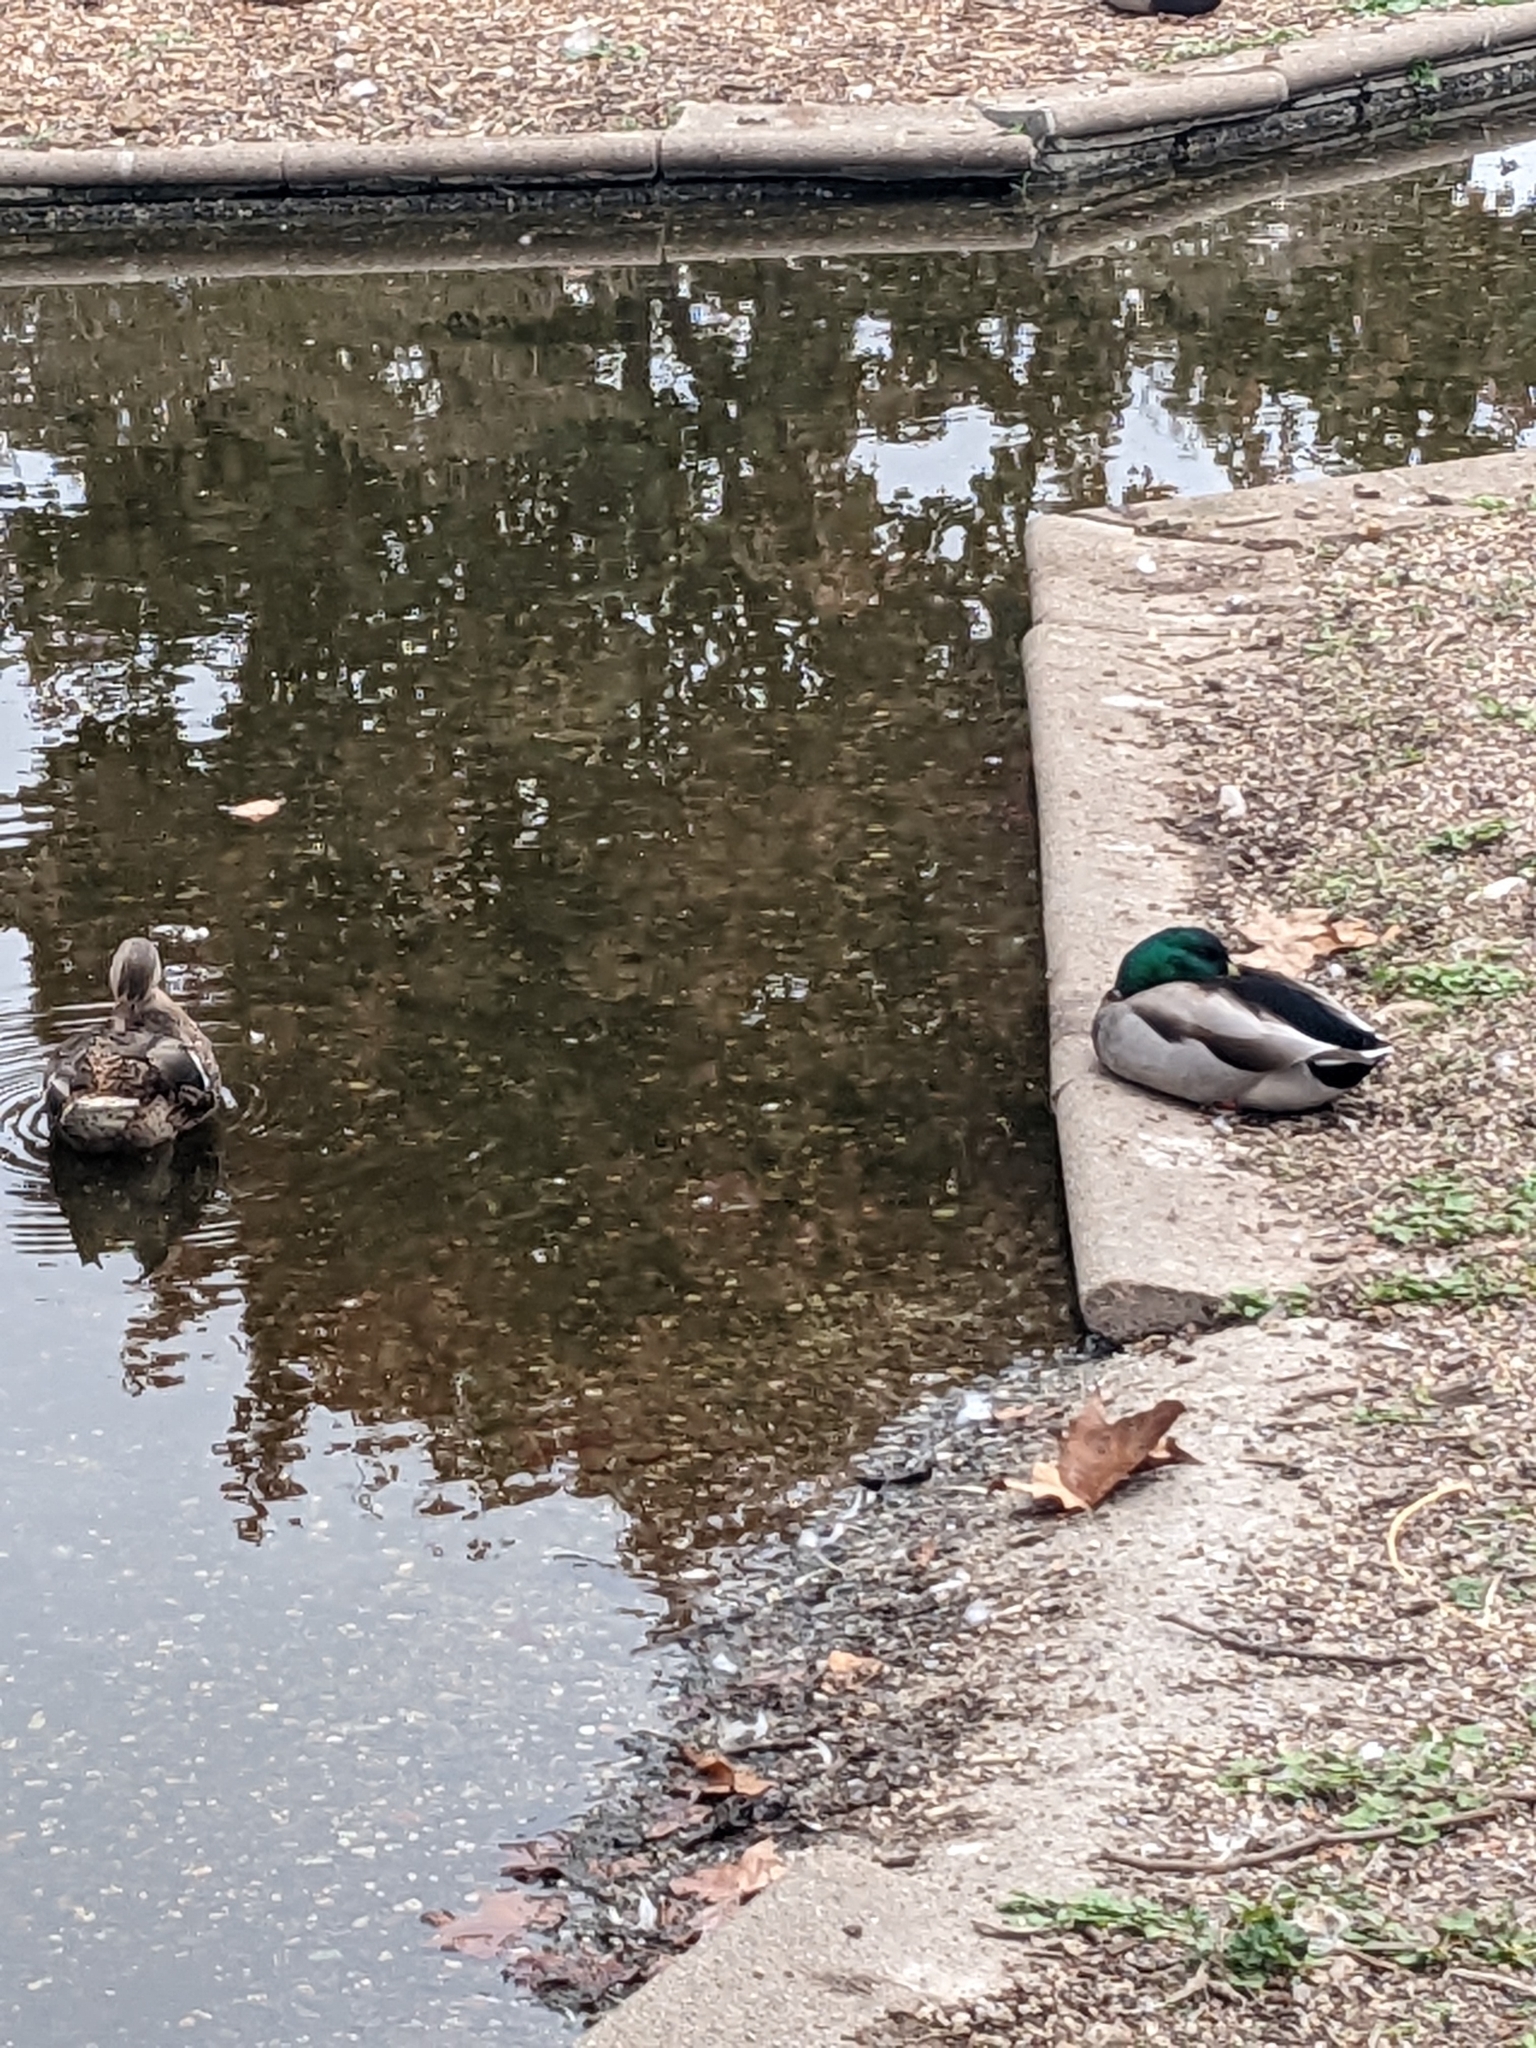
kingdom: Animalia
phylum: Chordata
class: Aves
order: Anseriformes
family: Anatidae
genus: Anas
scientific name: Anas platyrhynchos
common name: Mallard
